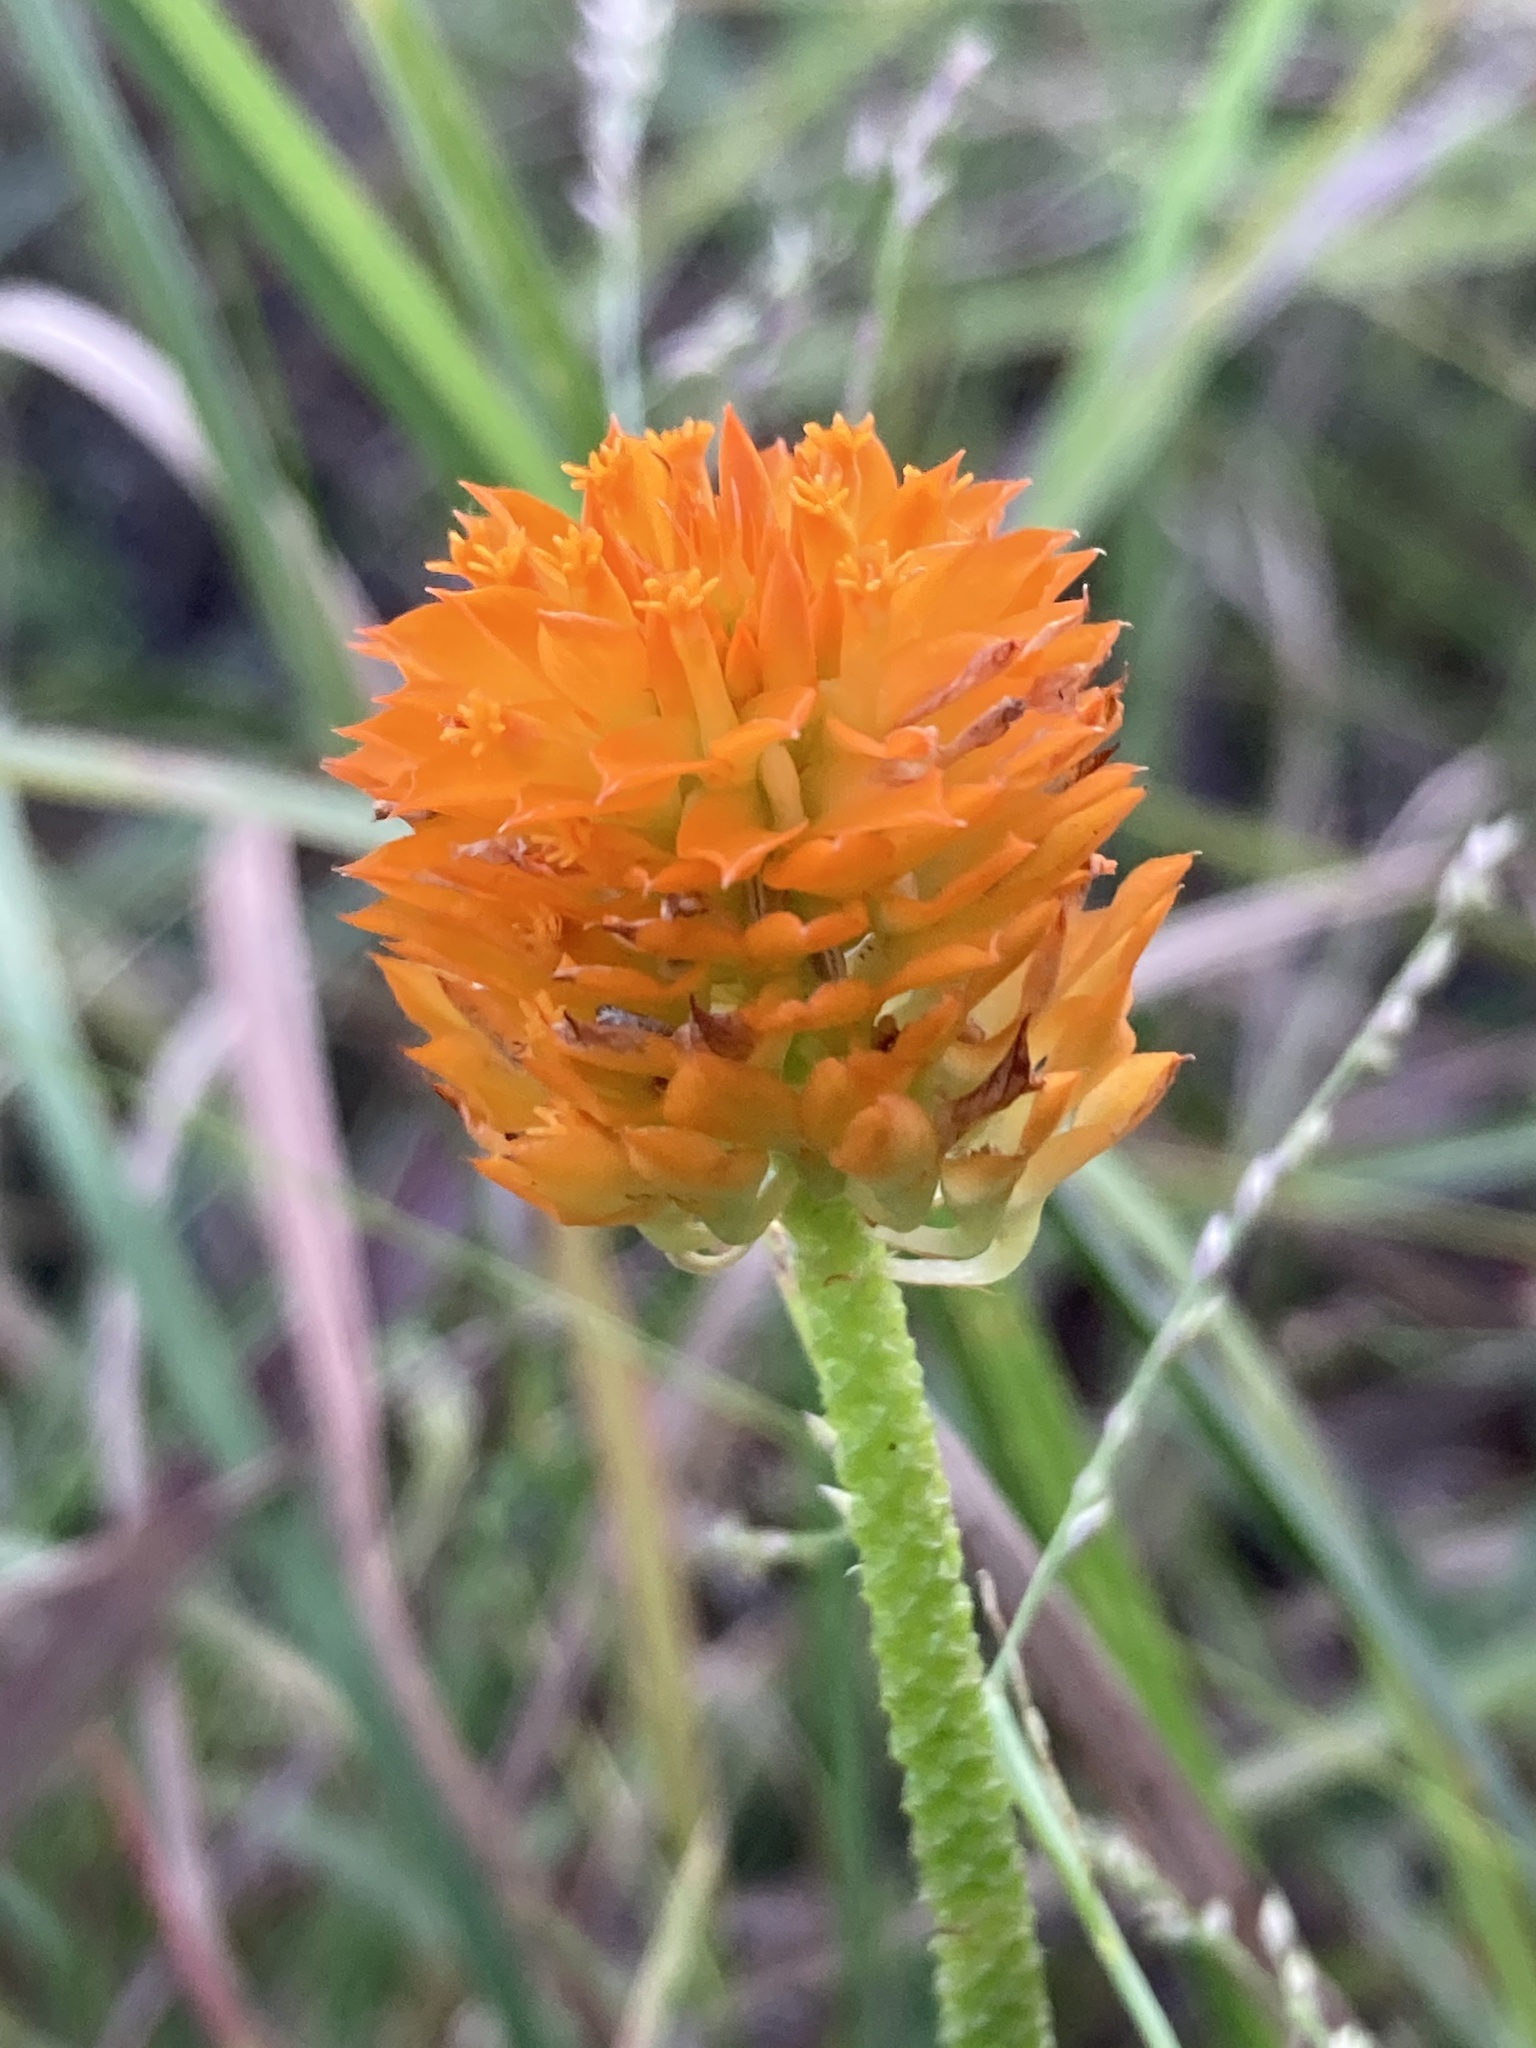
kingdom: Plantae
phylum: Tracheophyta
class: Magnoliopsida
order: Fabales
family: Polygalaceae
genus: Polygala
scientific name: Polygala lutea
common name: Orange milkwort
